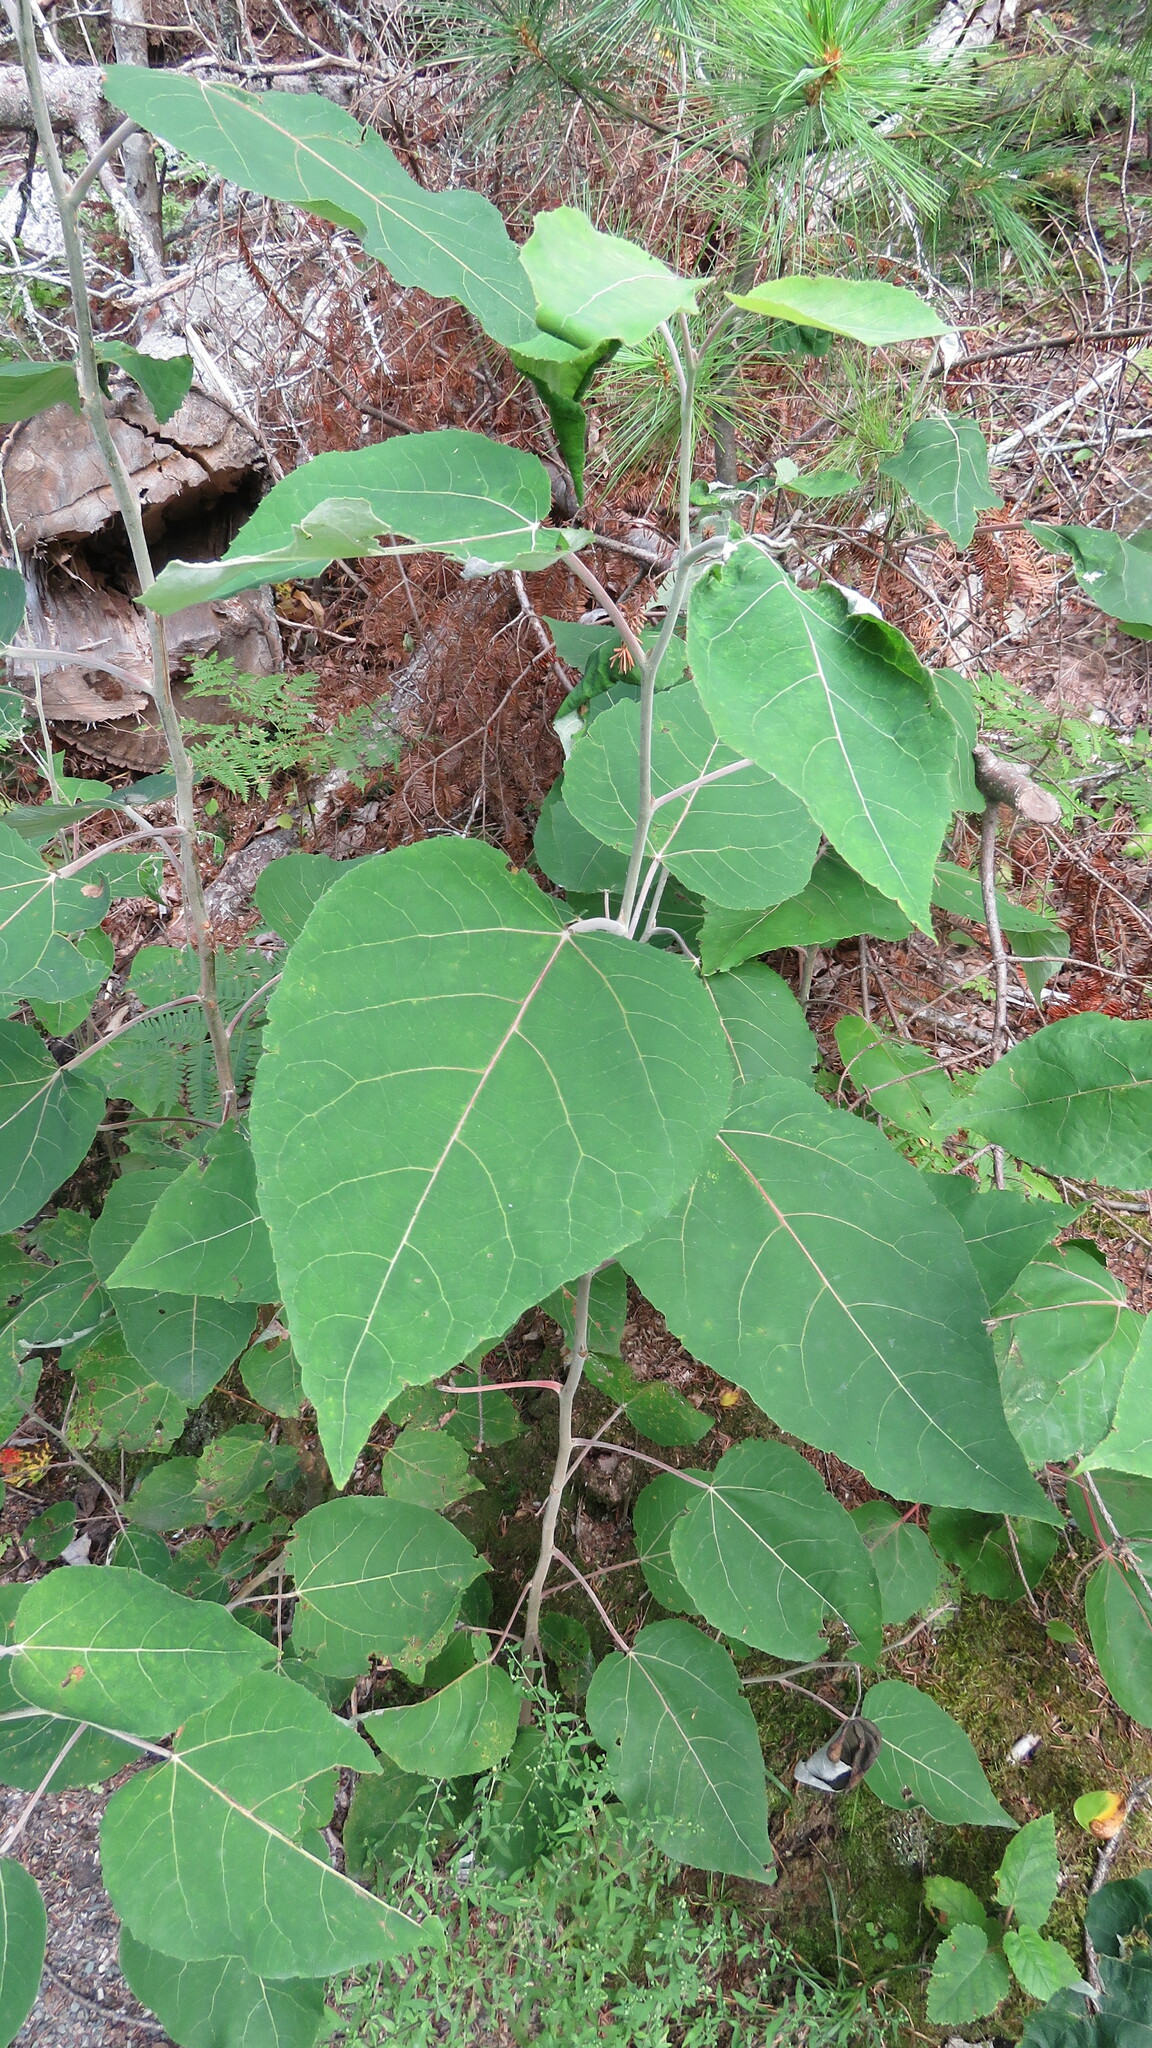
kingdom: Plantae
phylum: Tracheophyta
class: Magnoliopsida
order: Malpighiales
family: Salicaceae
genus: Populus
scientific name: Populus grandidentata
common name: Bigtooth aspen
